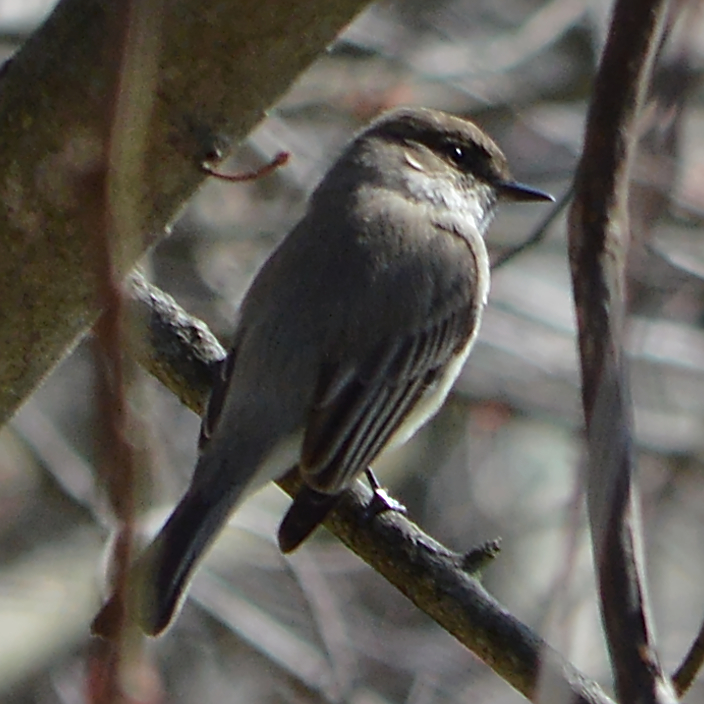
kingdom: Animalia
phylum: Chordata
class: Aves
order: Passeriformes
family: Tyrannidae
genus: Sayornis
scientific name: Sayornis phoebe
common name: Eastern phoebe
